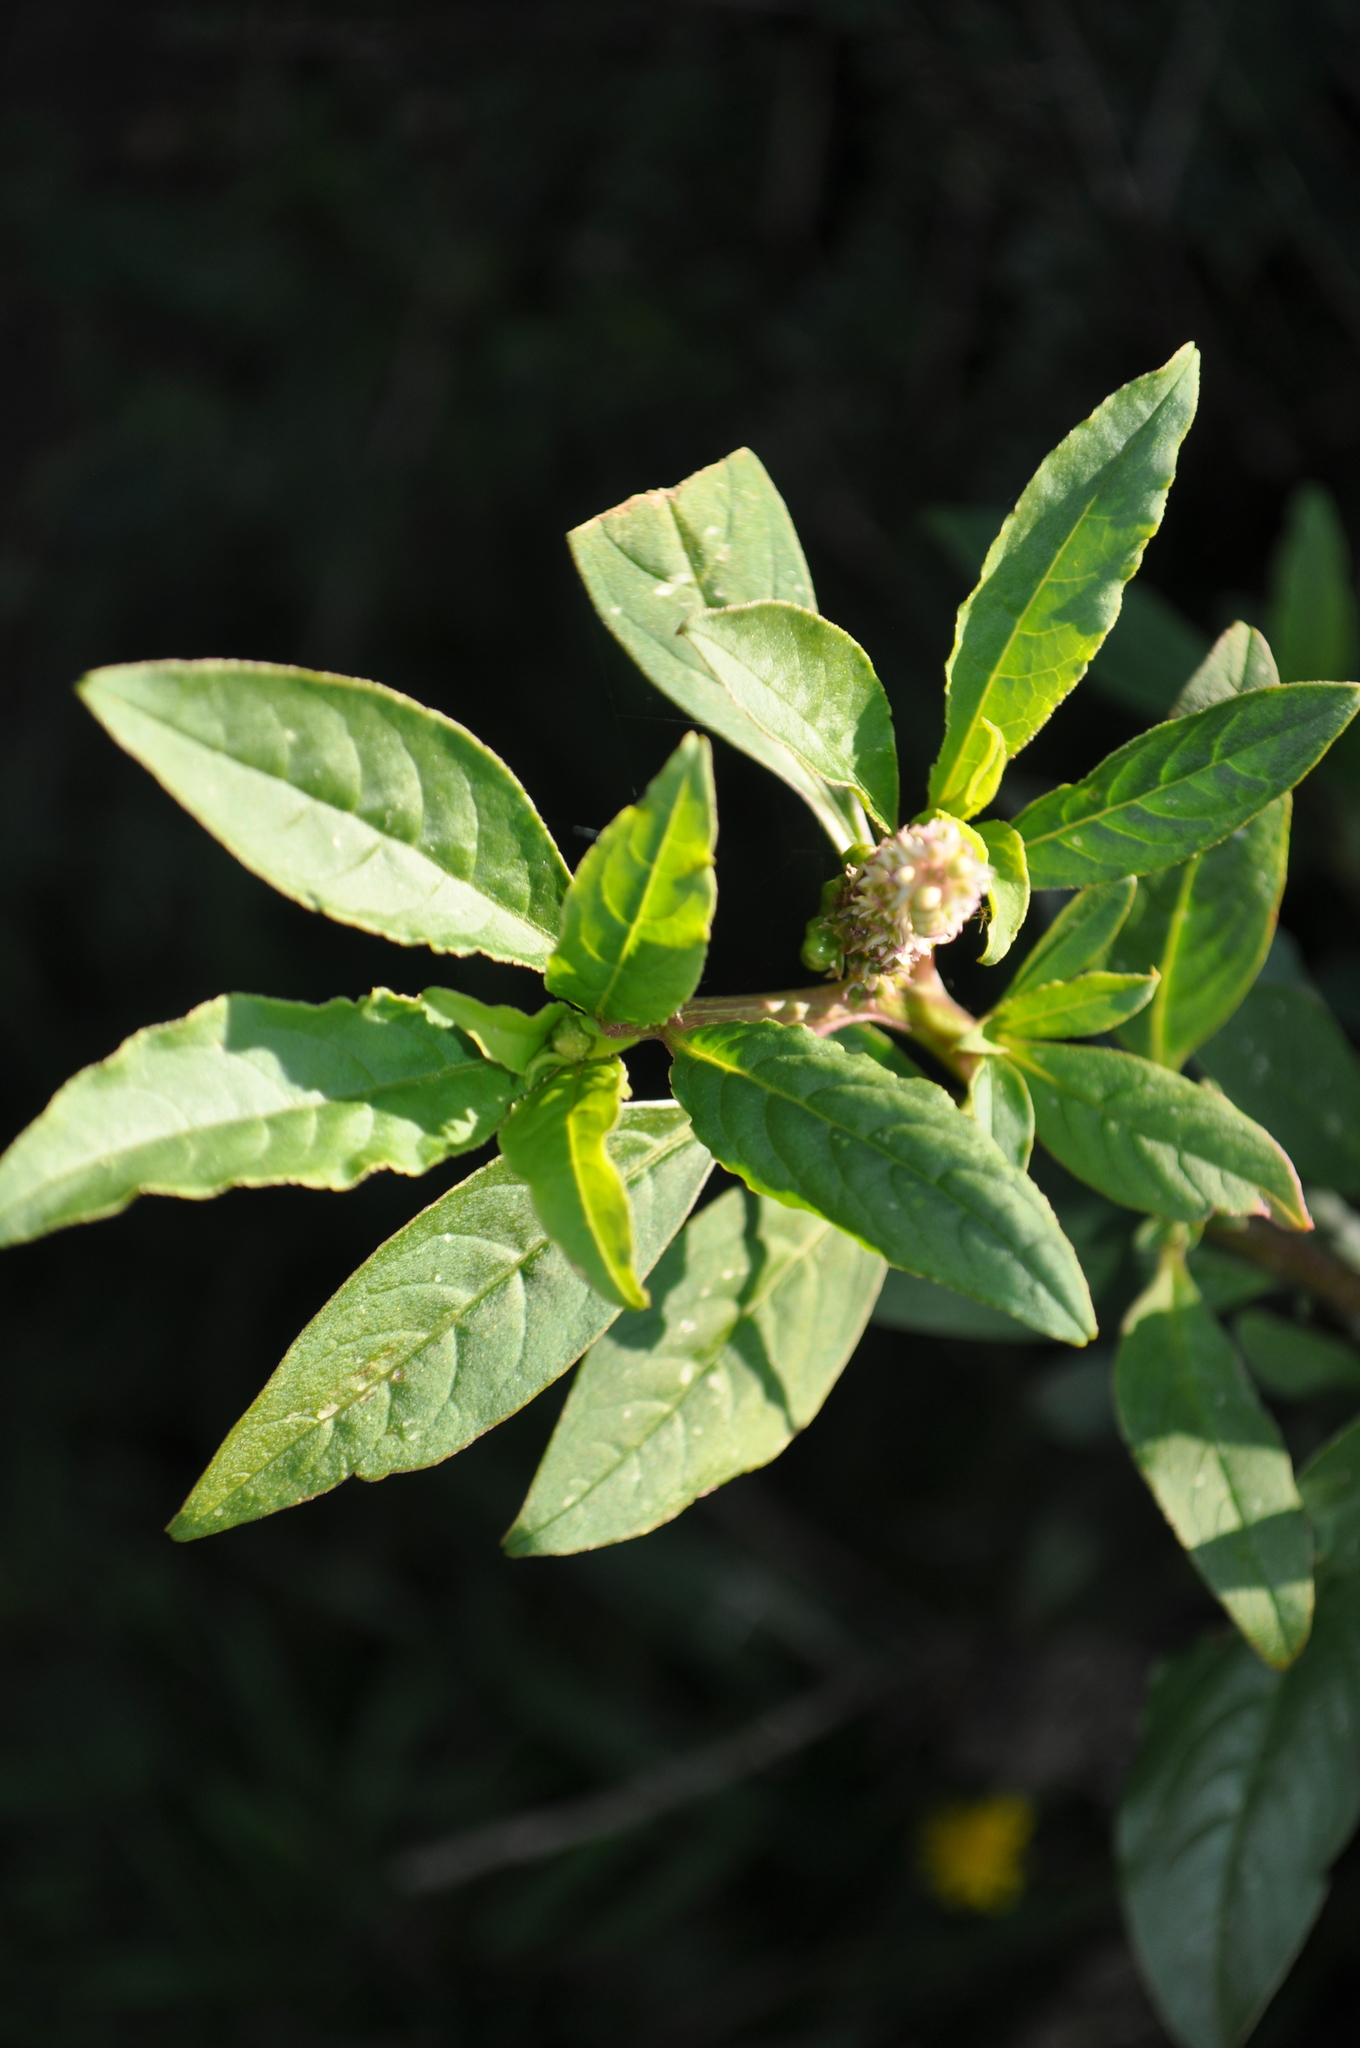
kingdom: Plantae
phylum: Tracheophyta
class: Magnoliopsida
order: Caryophyllales
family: Phytolaccaceae
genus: Phytolacca
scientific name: Phytolacca icosandra
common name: Button pokeweed
